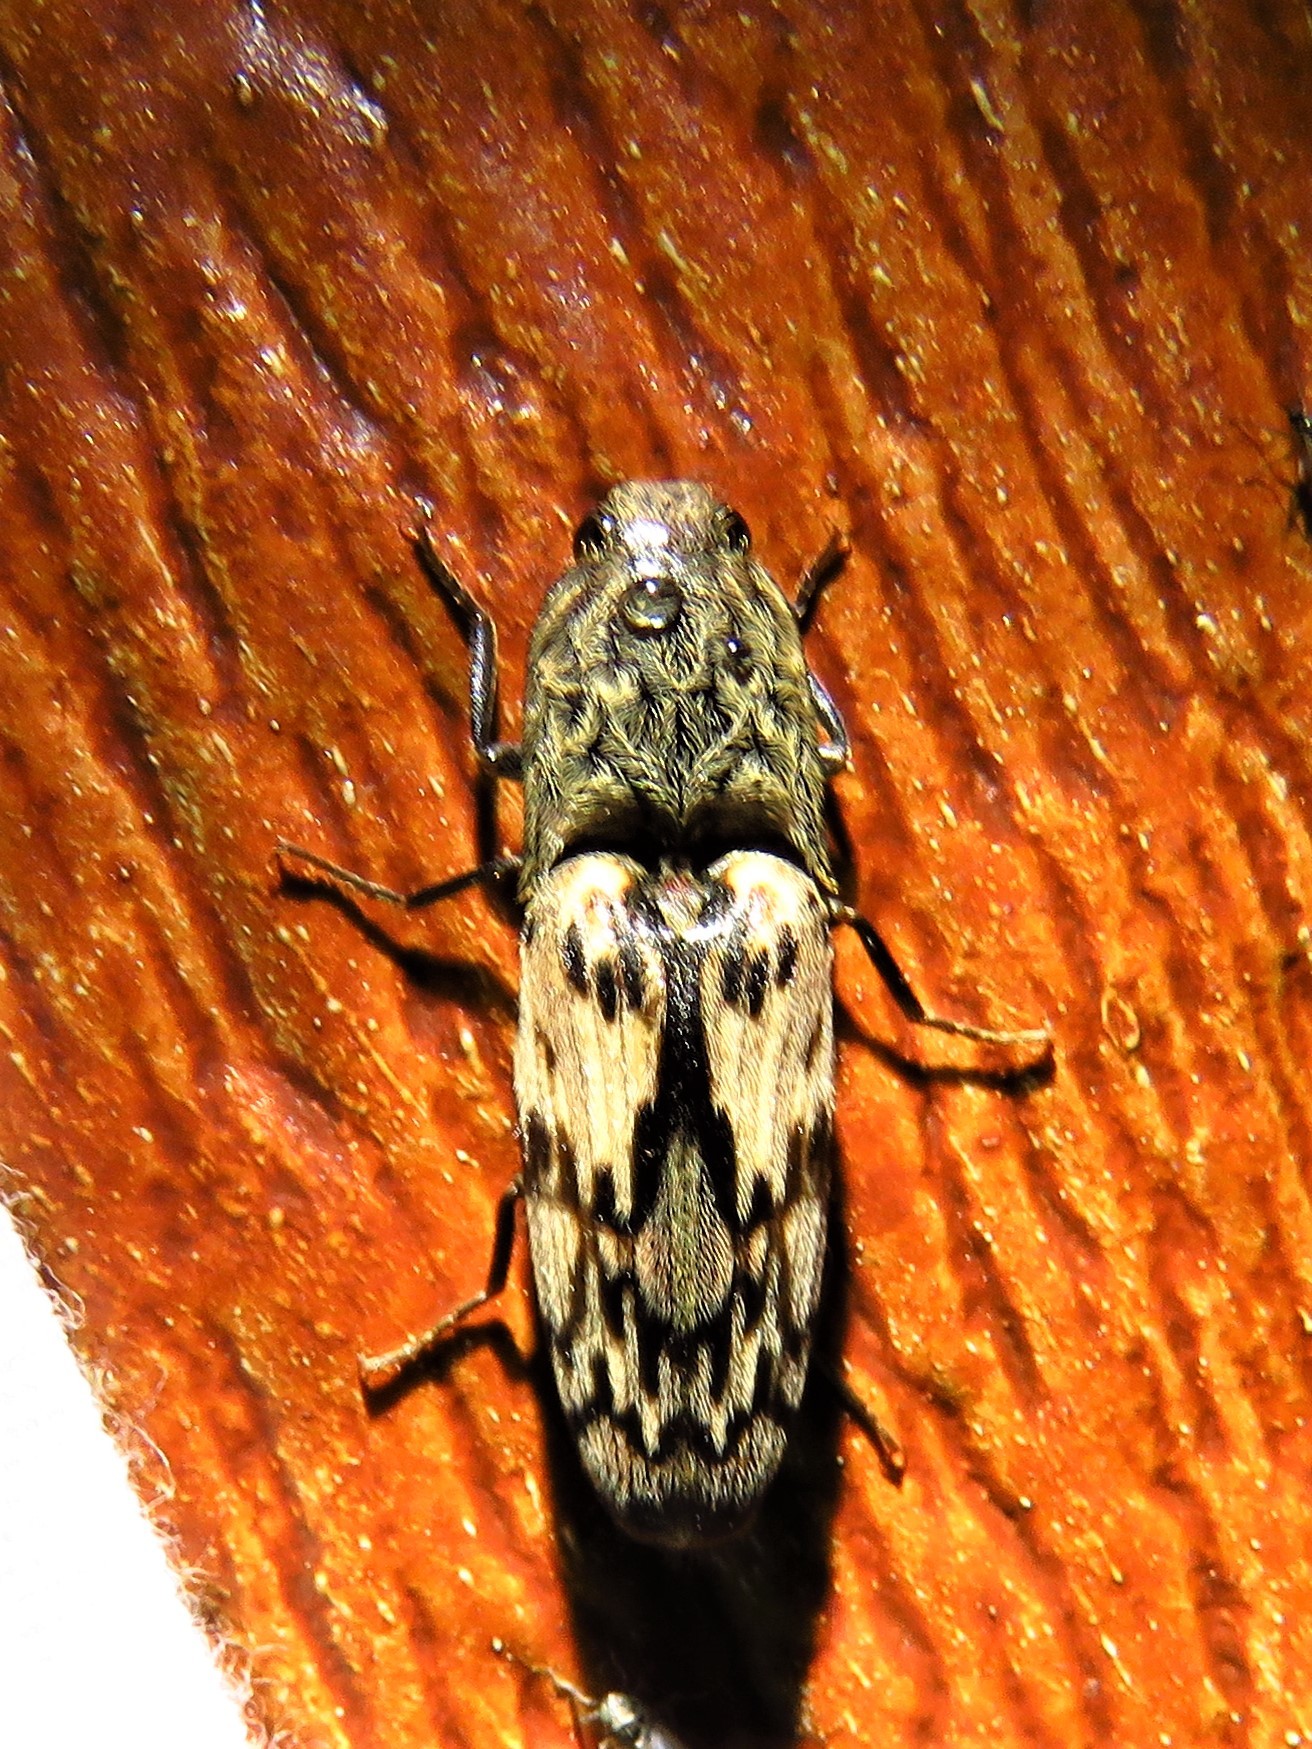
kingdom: Animalia
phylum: Arthropoda
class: Insecta
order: Coleoptera
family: Elateridae
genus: Pherhimius
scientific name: Pherhimius fascicularis
